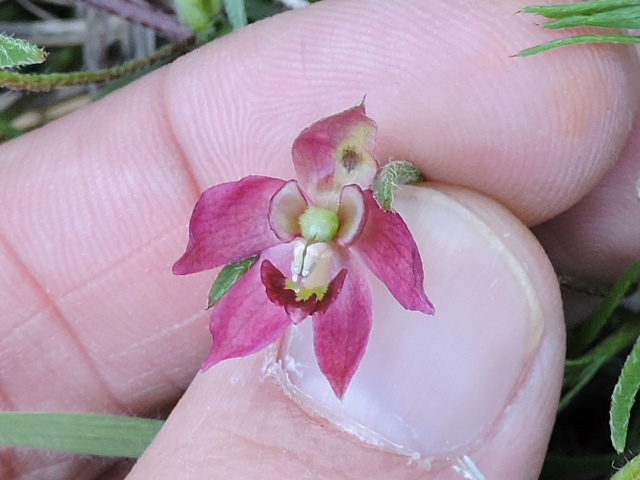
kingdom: Plantae
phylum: Tracheophyta
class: Magnoliopsida
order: Zygophyllales
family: Krameriaceae
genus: Krameria
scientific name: Krameria lanceolata
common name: Ratany
